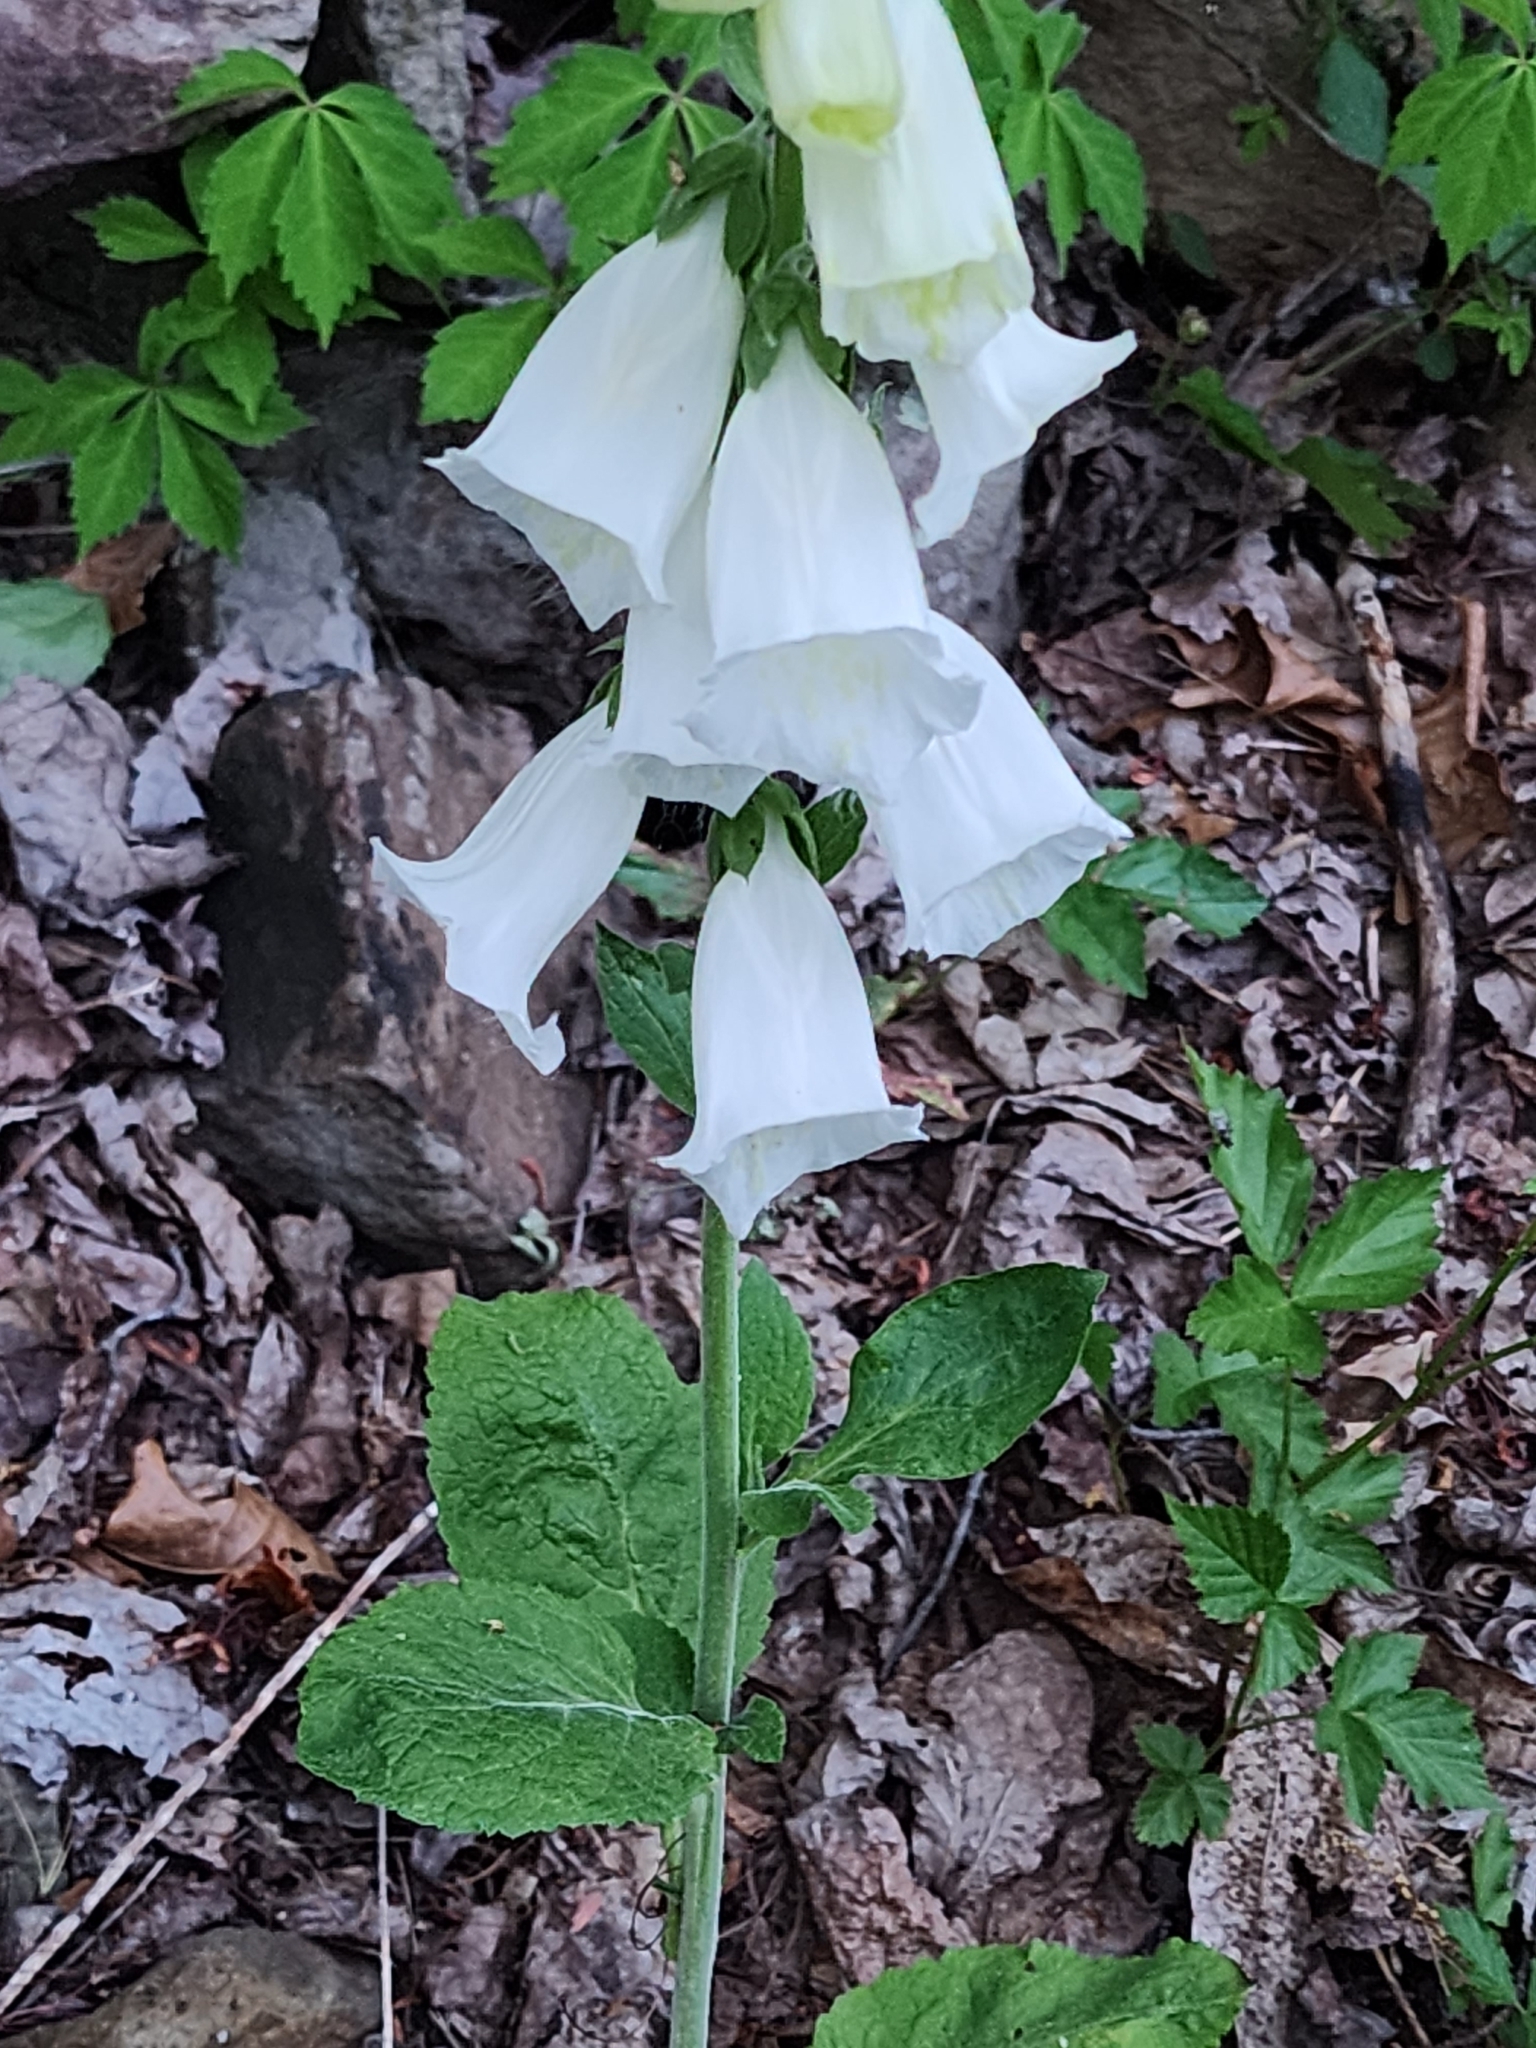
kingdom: Plantae
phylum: Tracheophyta
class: Magnoliopsida
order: Lamiales
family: Plantaginaceae
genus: Digitalis
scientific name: Digitalis purpurea
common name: Foxglove
